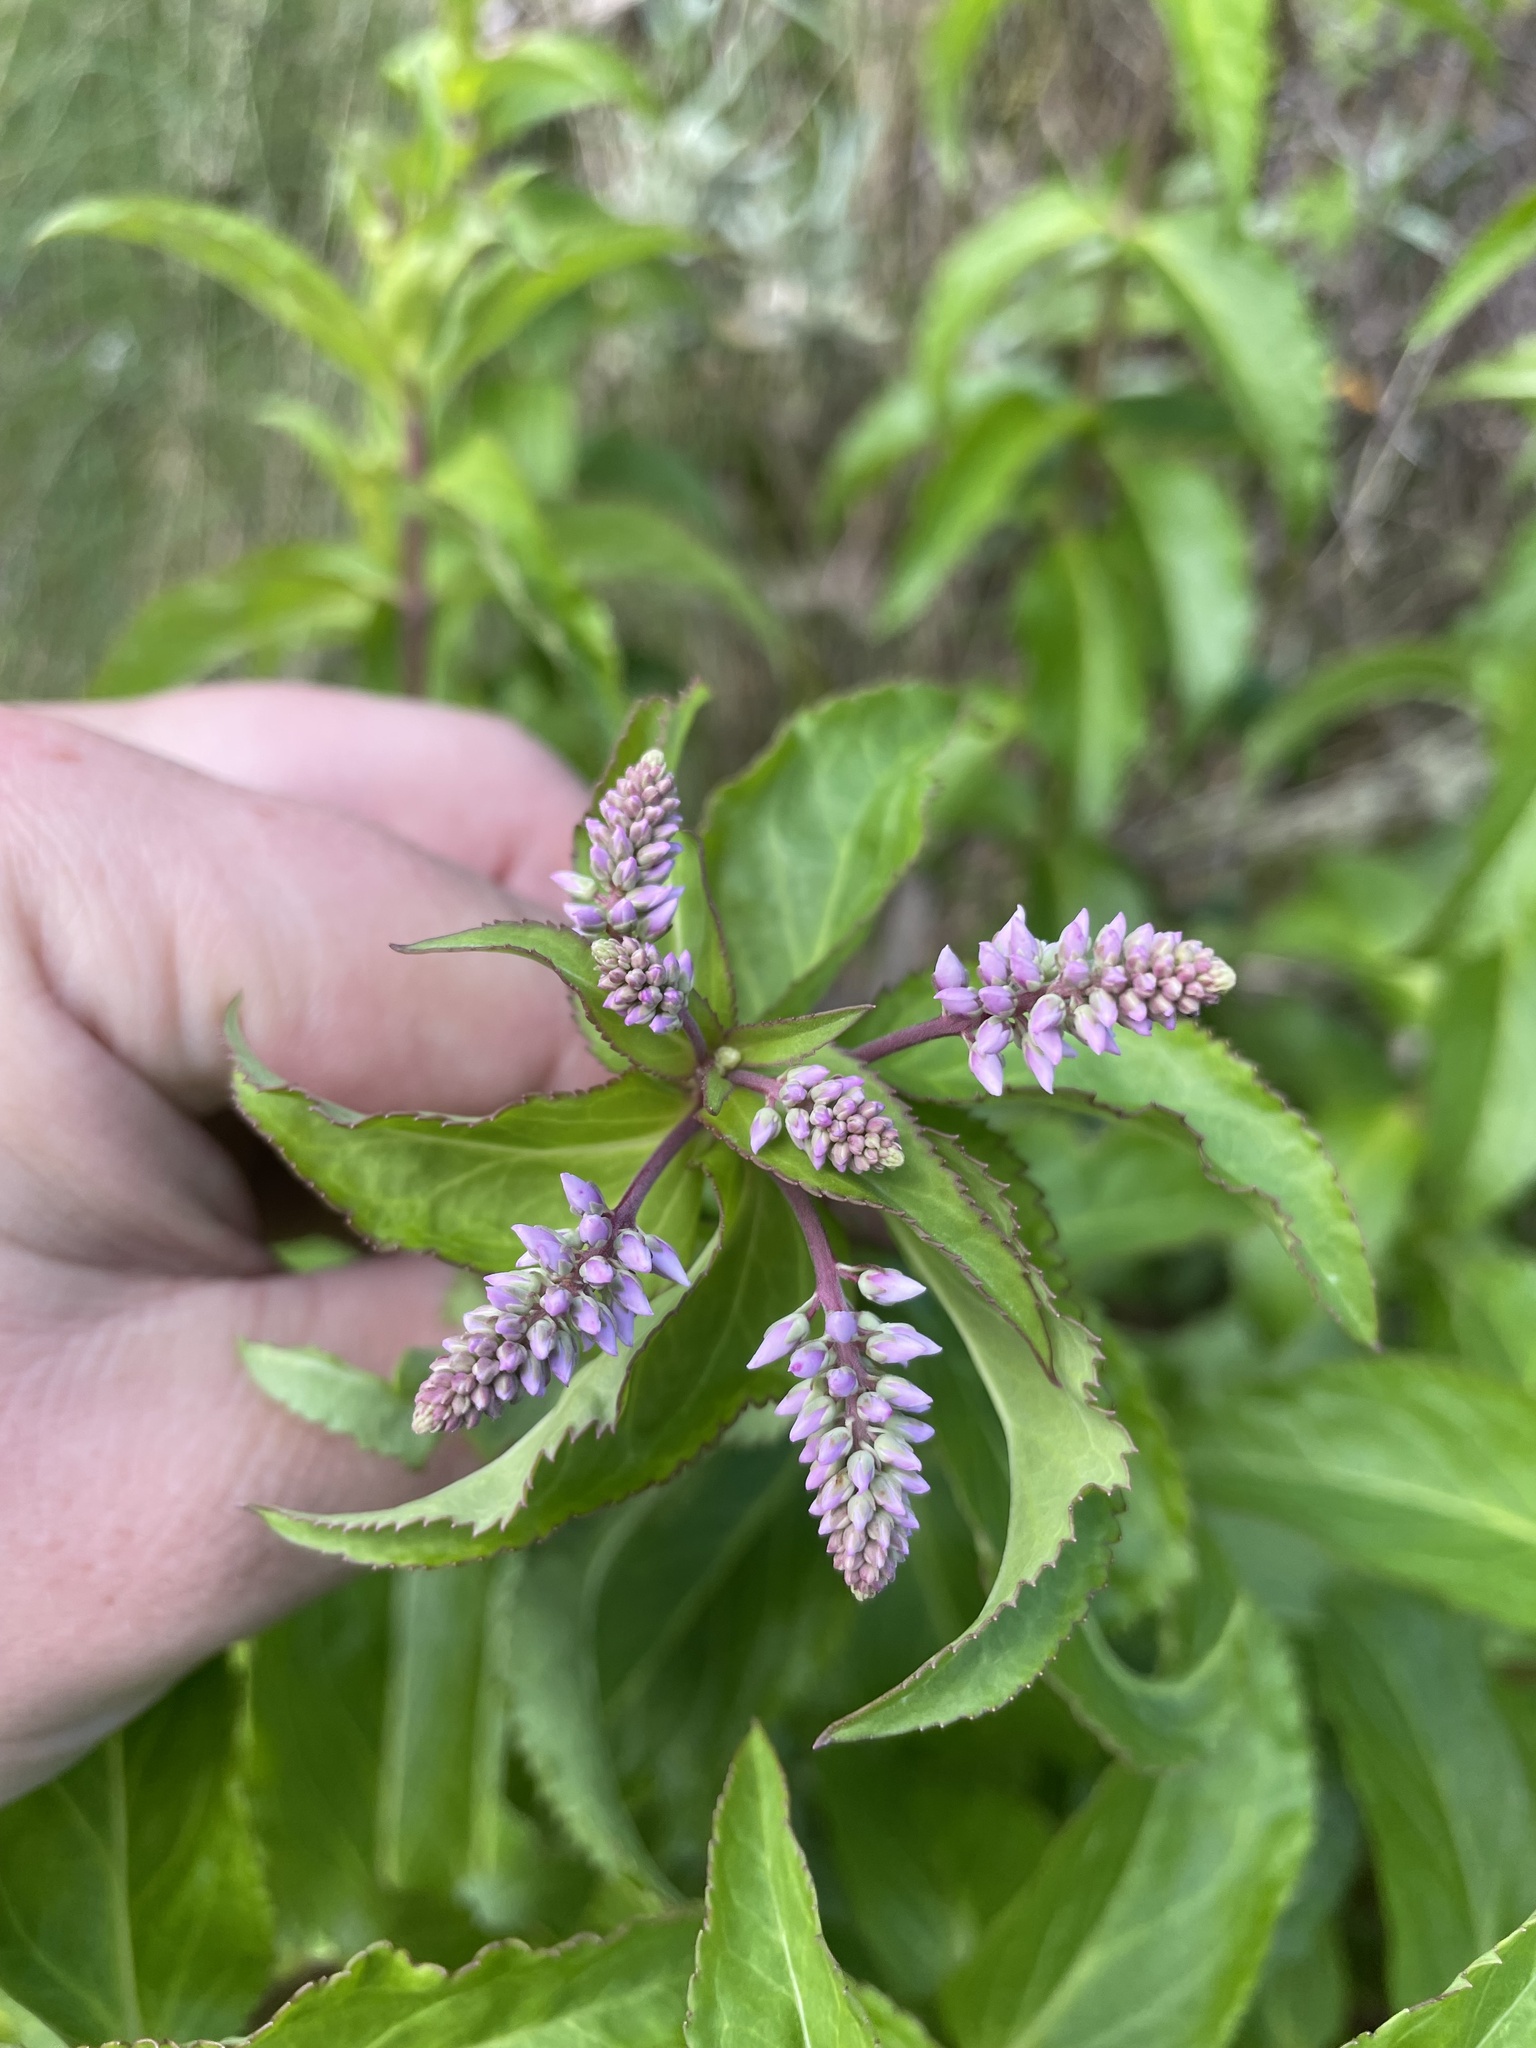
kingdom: Plantae
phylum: Tracheophyta
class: Magnoliopsida
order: Lamiales
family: Plantaginaceae
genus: Veronica
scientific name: Veronica derwentiana
